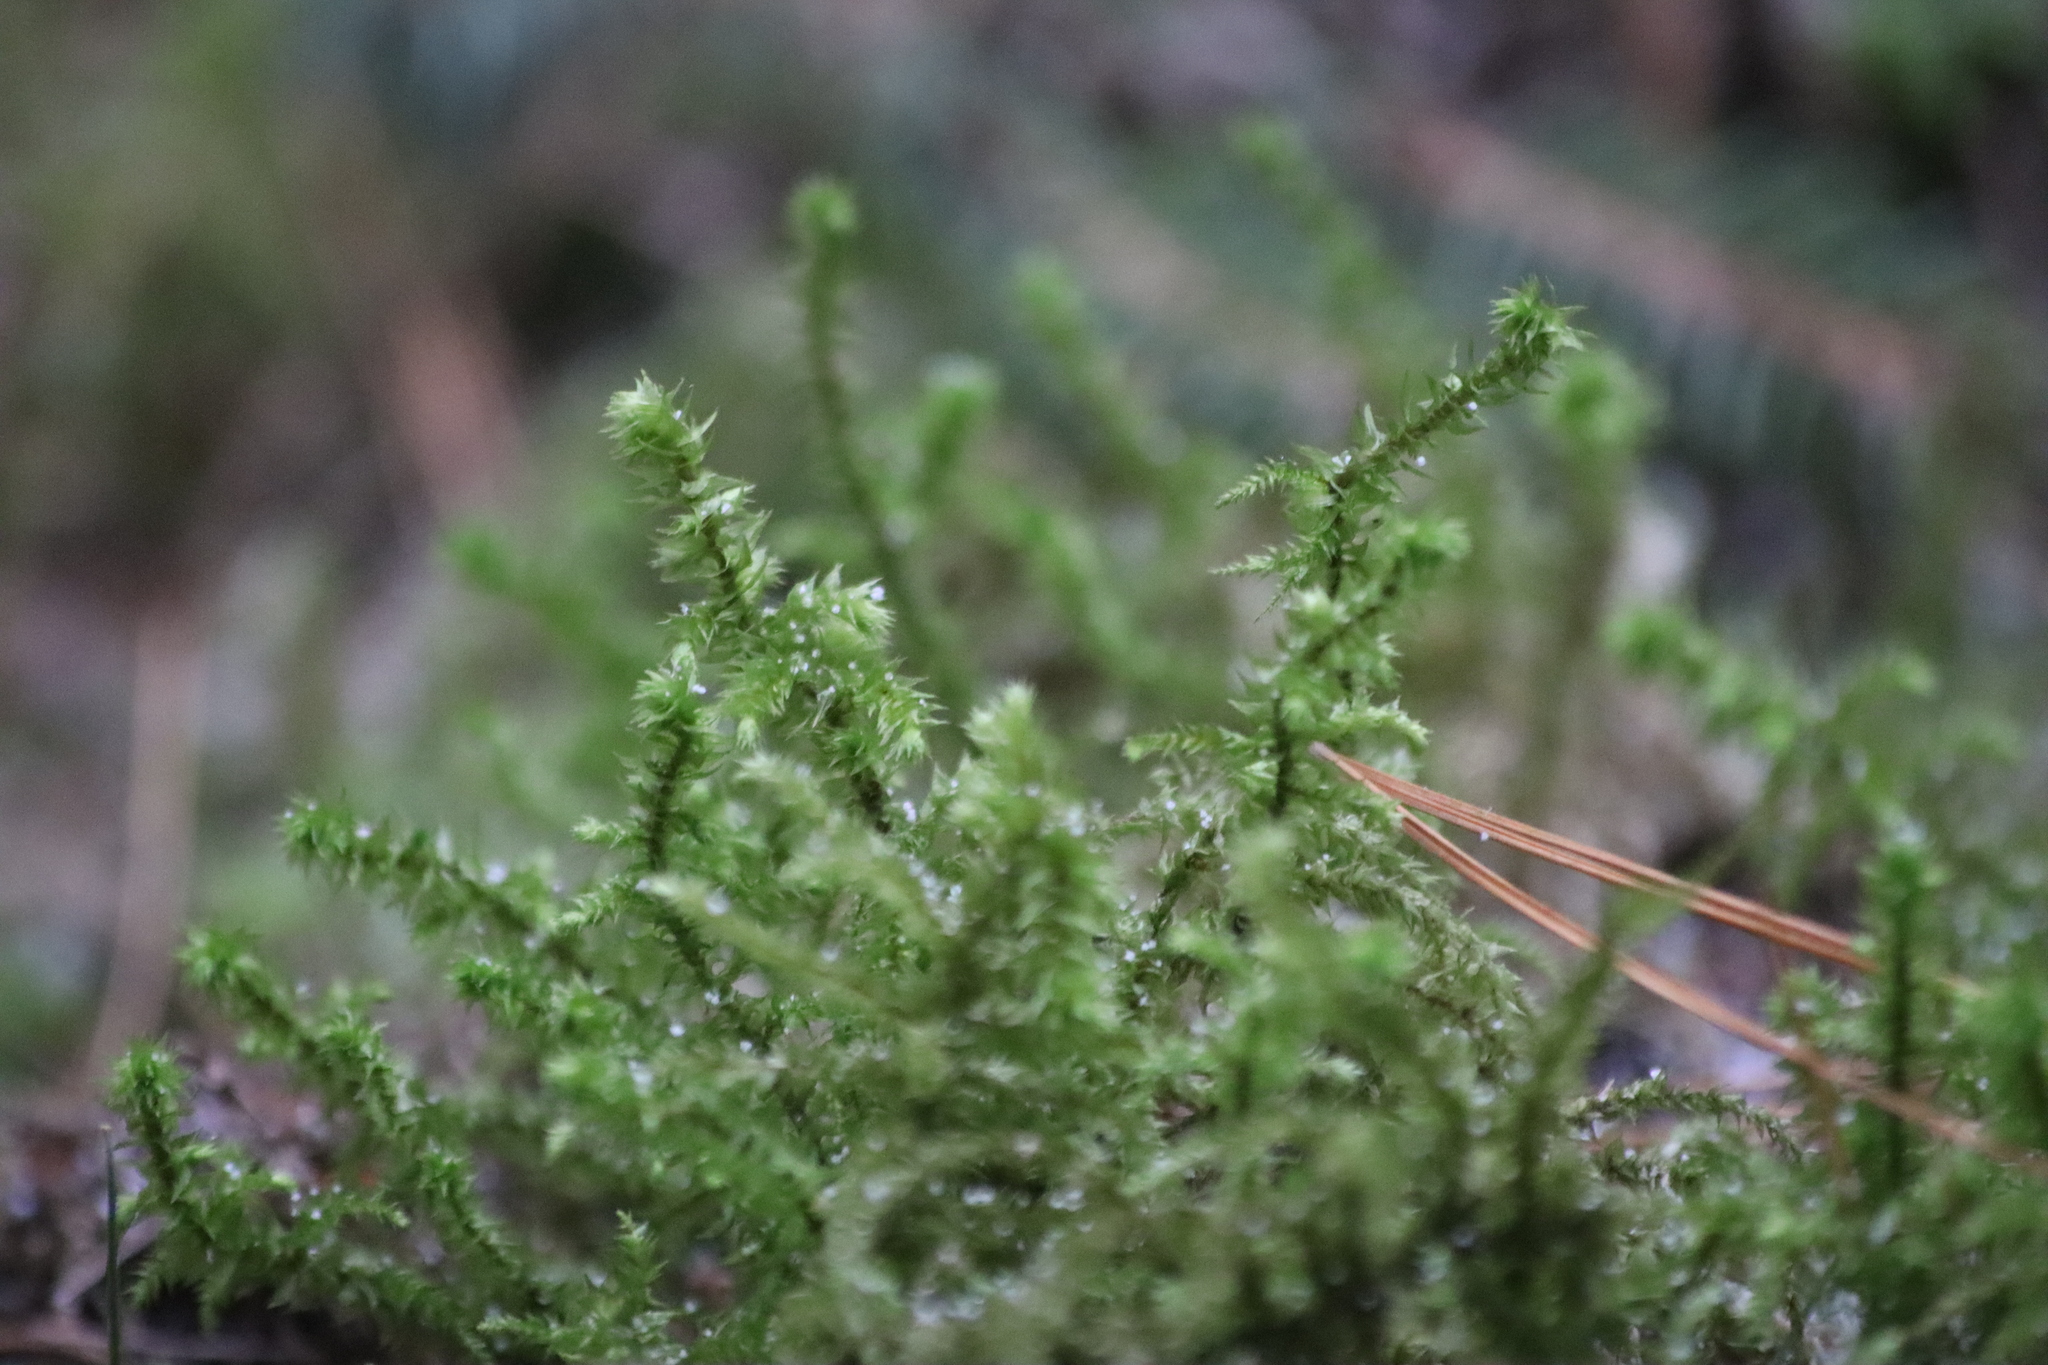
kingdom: Plantae
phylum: Bryophyta
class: Bryopsida
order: Hypnales
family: Hylocomiaceae
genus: Hylocomiadelphus
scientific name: Hylocomiadelphus triquetrus
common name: Rough goose neck moss
